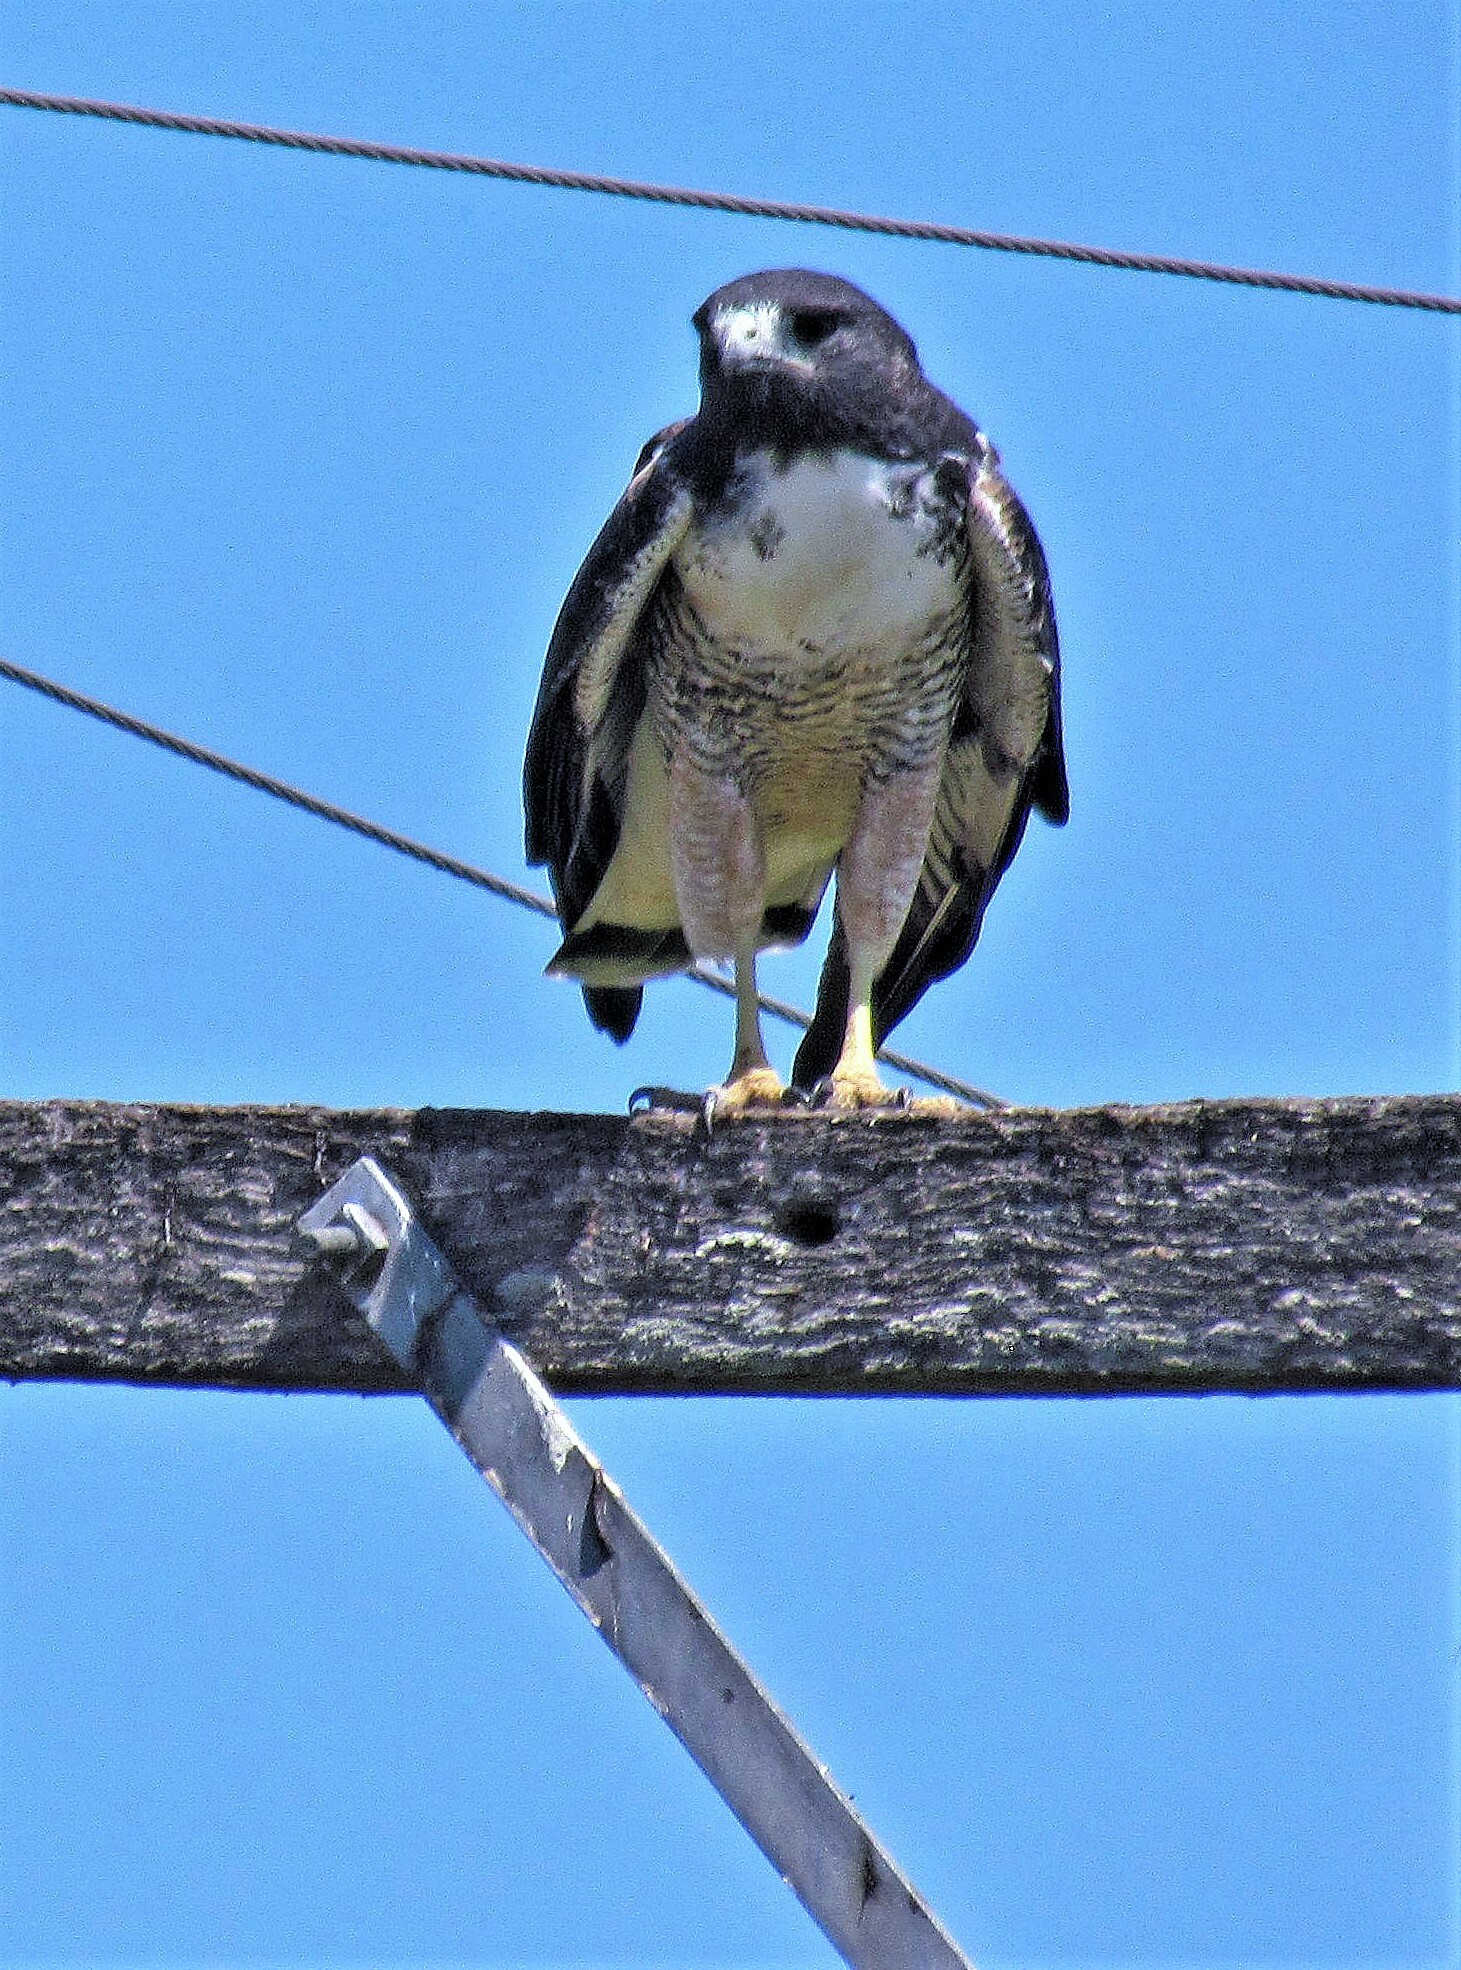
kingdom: Animalia
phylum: Chordata
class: Aves
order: Accipitriformes
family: Accipitridae
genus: Buteo
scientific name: Buteo albicaudatus
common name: White-tailed hawk
